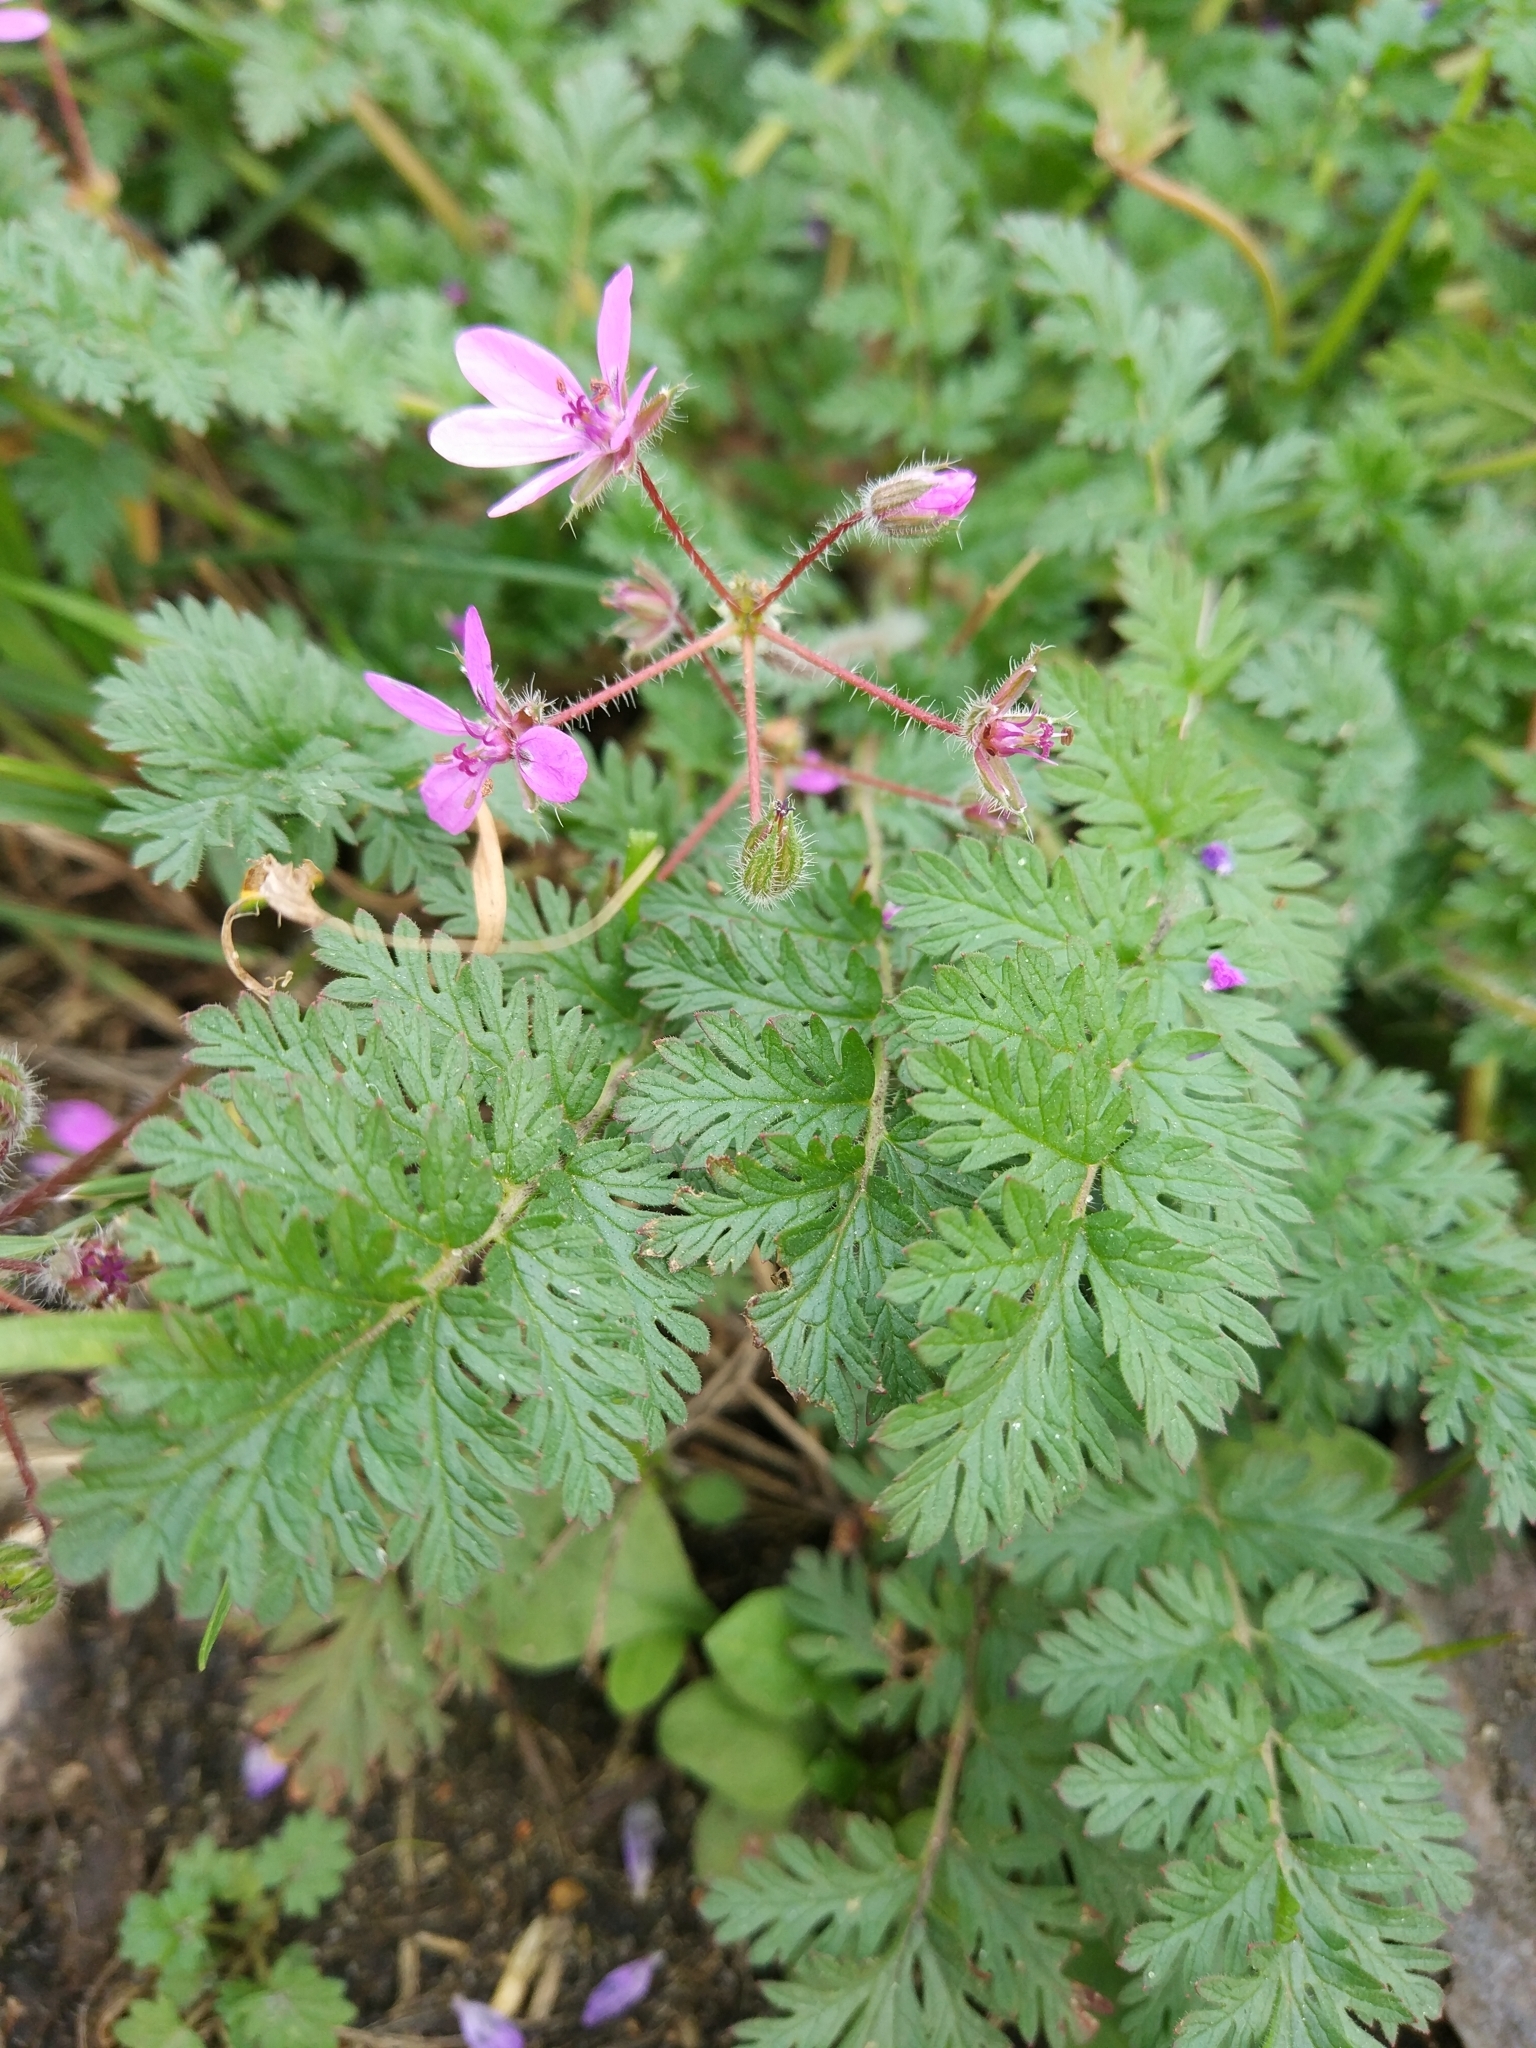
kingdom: Plantae
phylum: Tracheophyta
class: Magnoliopsida
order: Geraniales
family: Geraniaceae
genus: Erodium
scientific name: Erodium cicutarium
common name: Common stork's-bill
